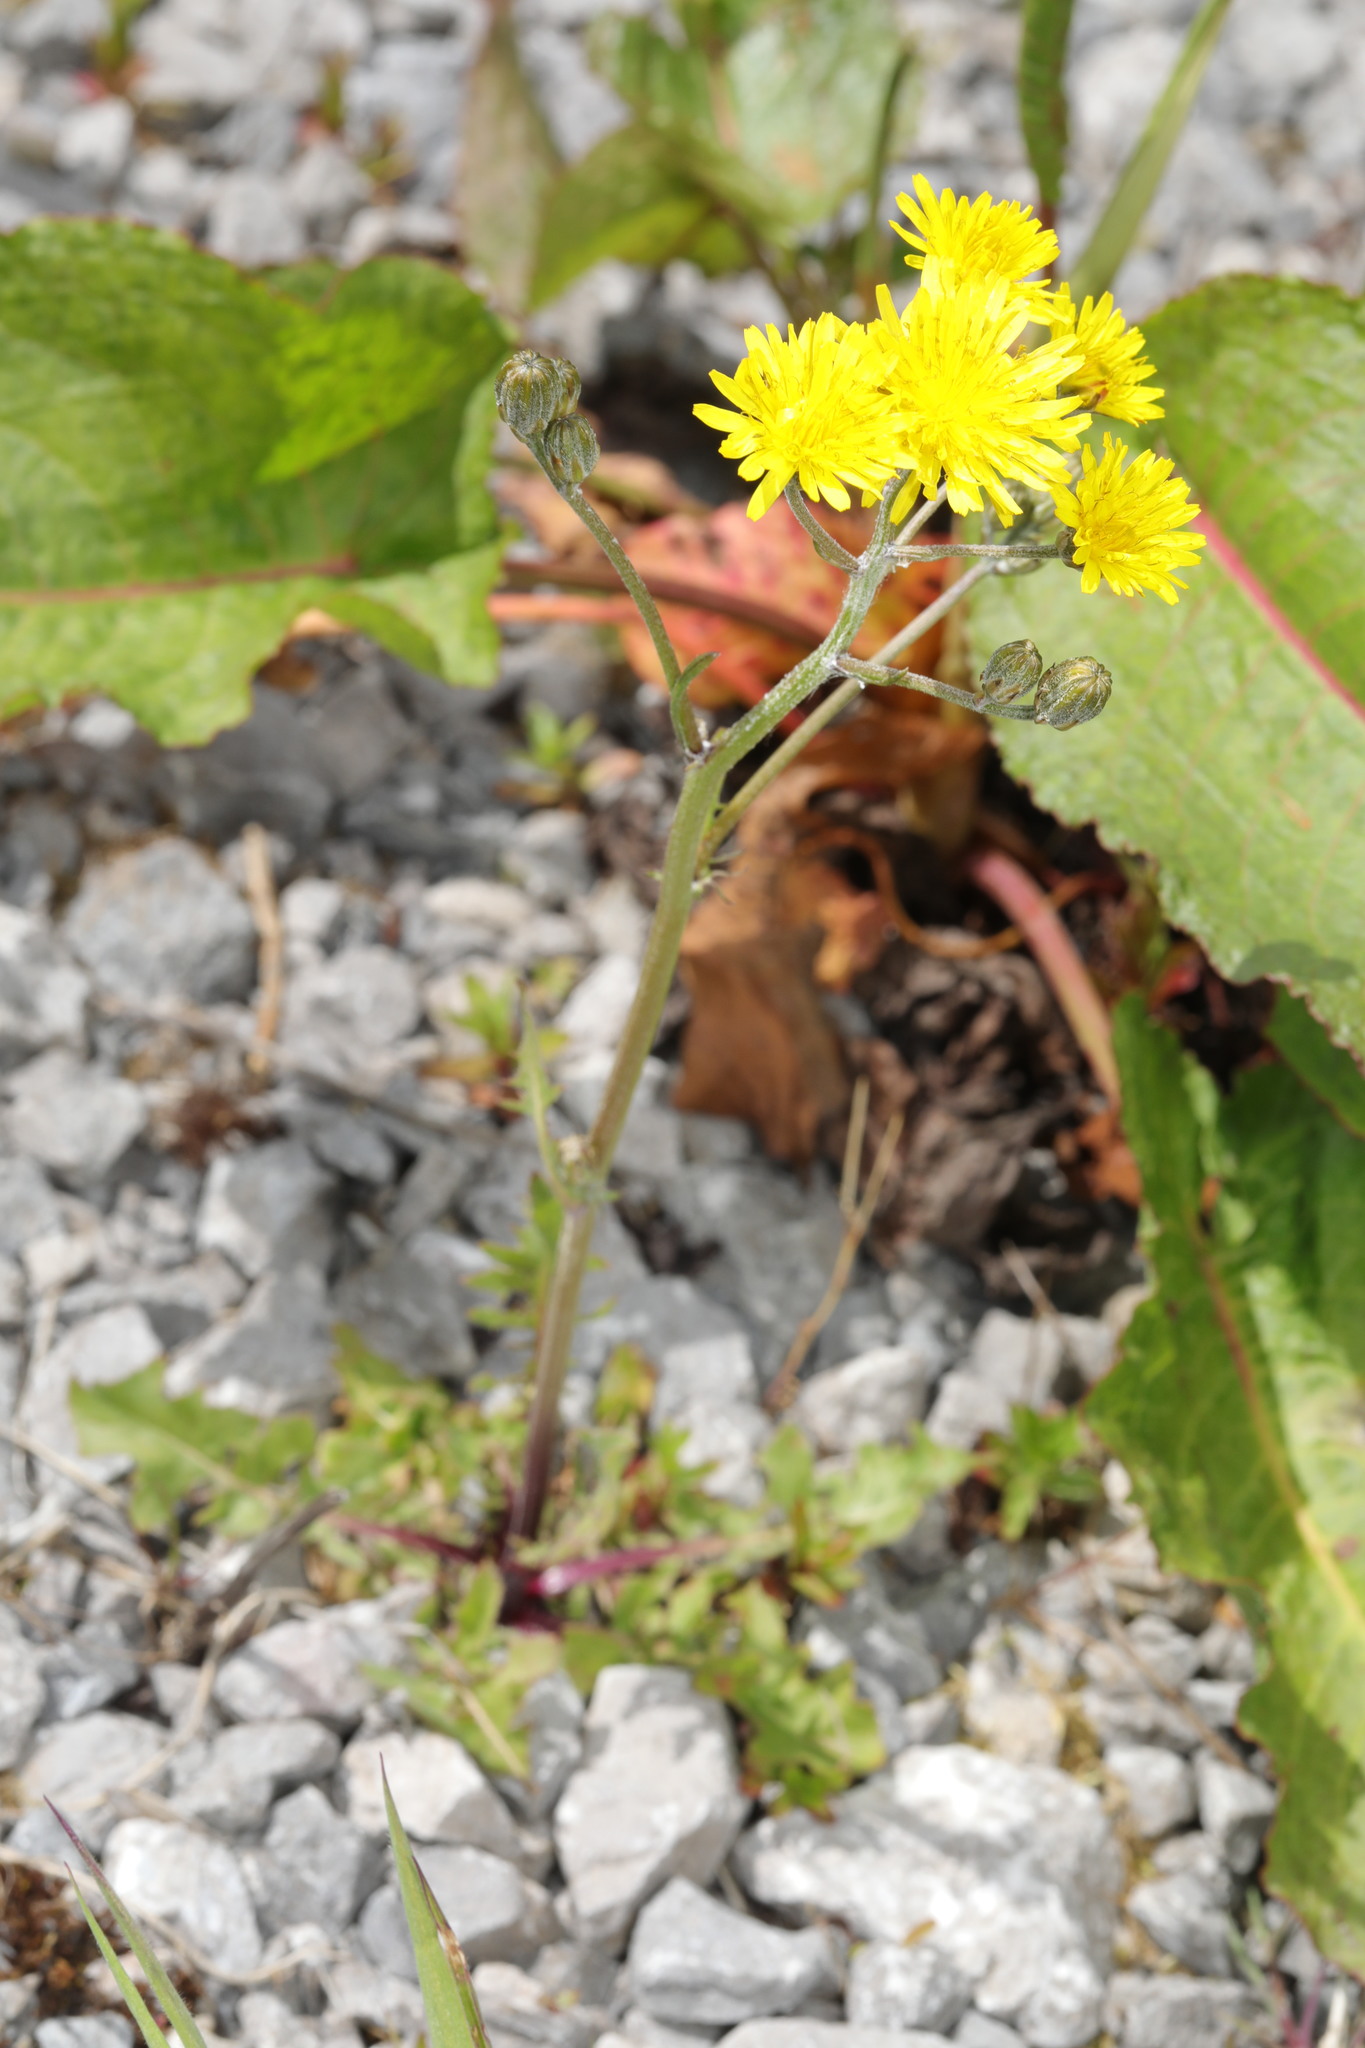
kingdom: Plantae
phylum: Tracheophyta
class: Magnoliopsida
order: Asterales
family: Asteraceae
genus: Crepis
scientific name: Crepis vesicaria
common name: Beaked hawksbeard
